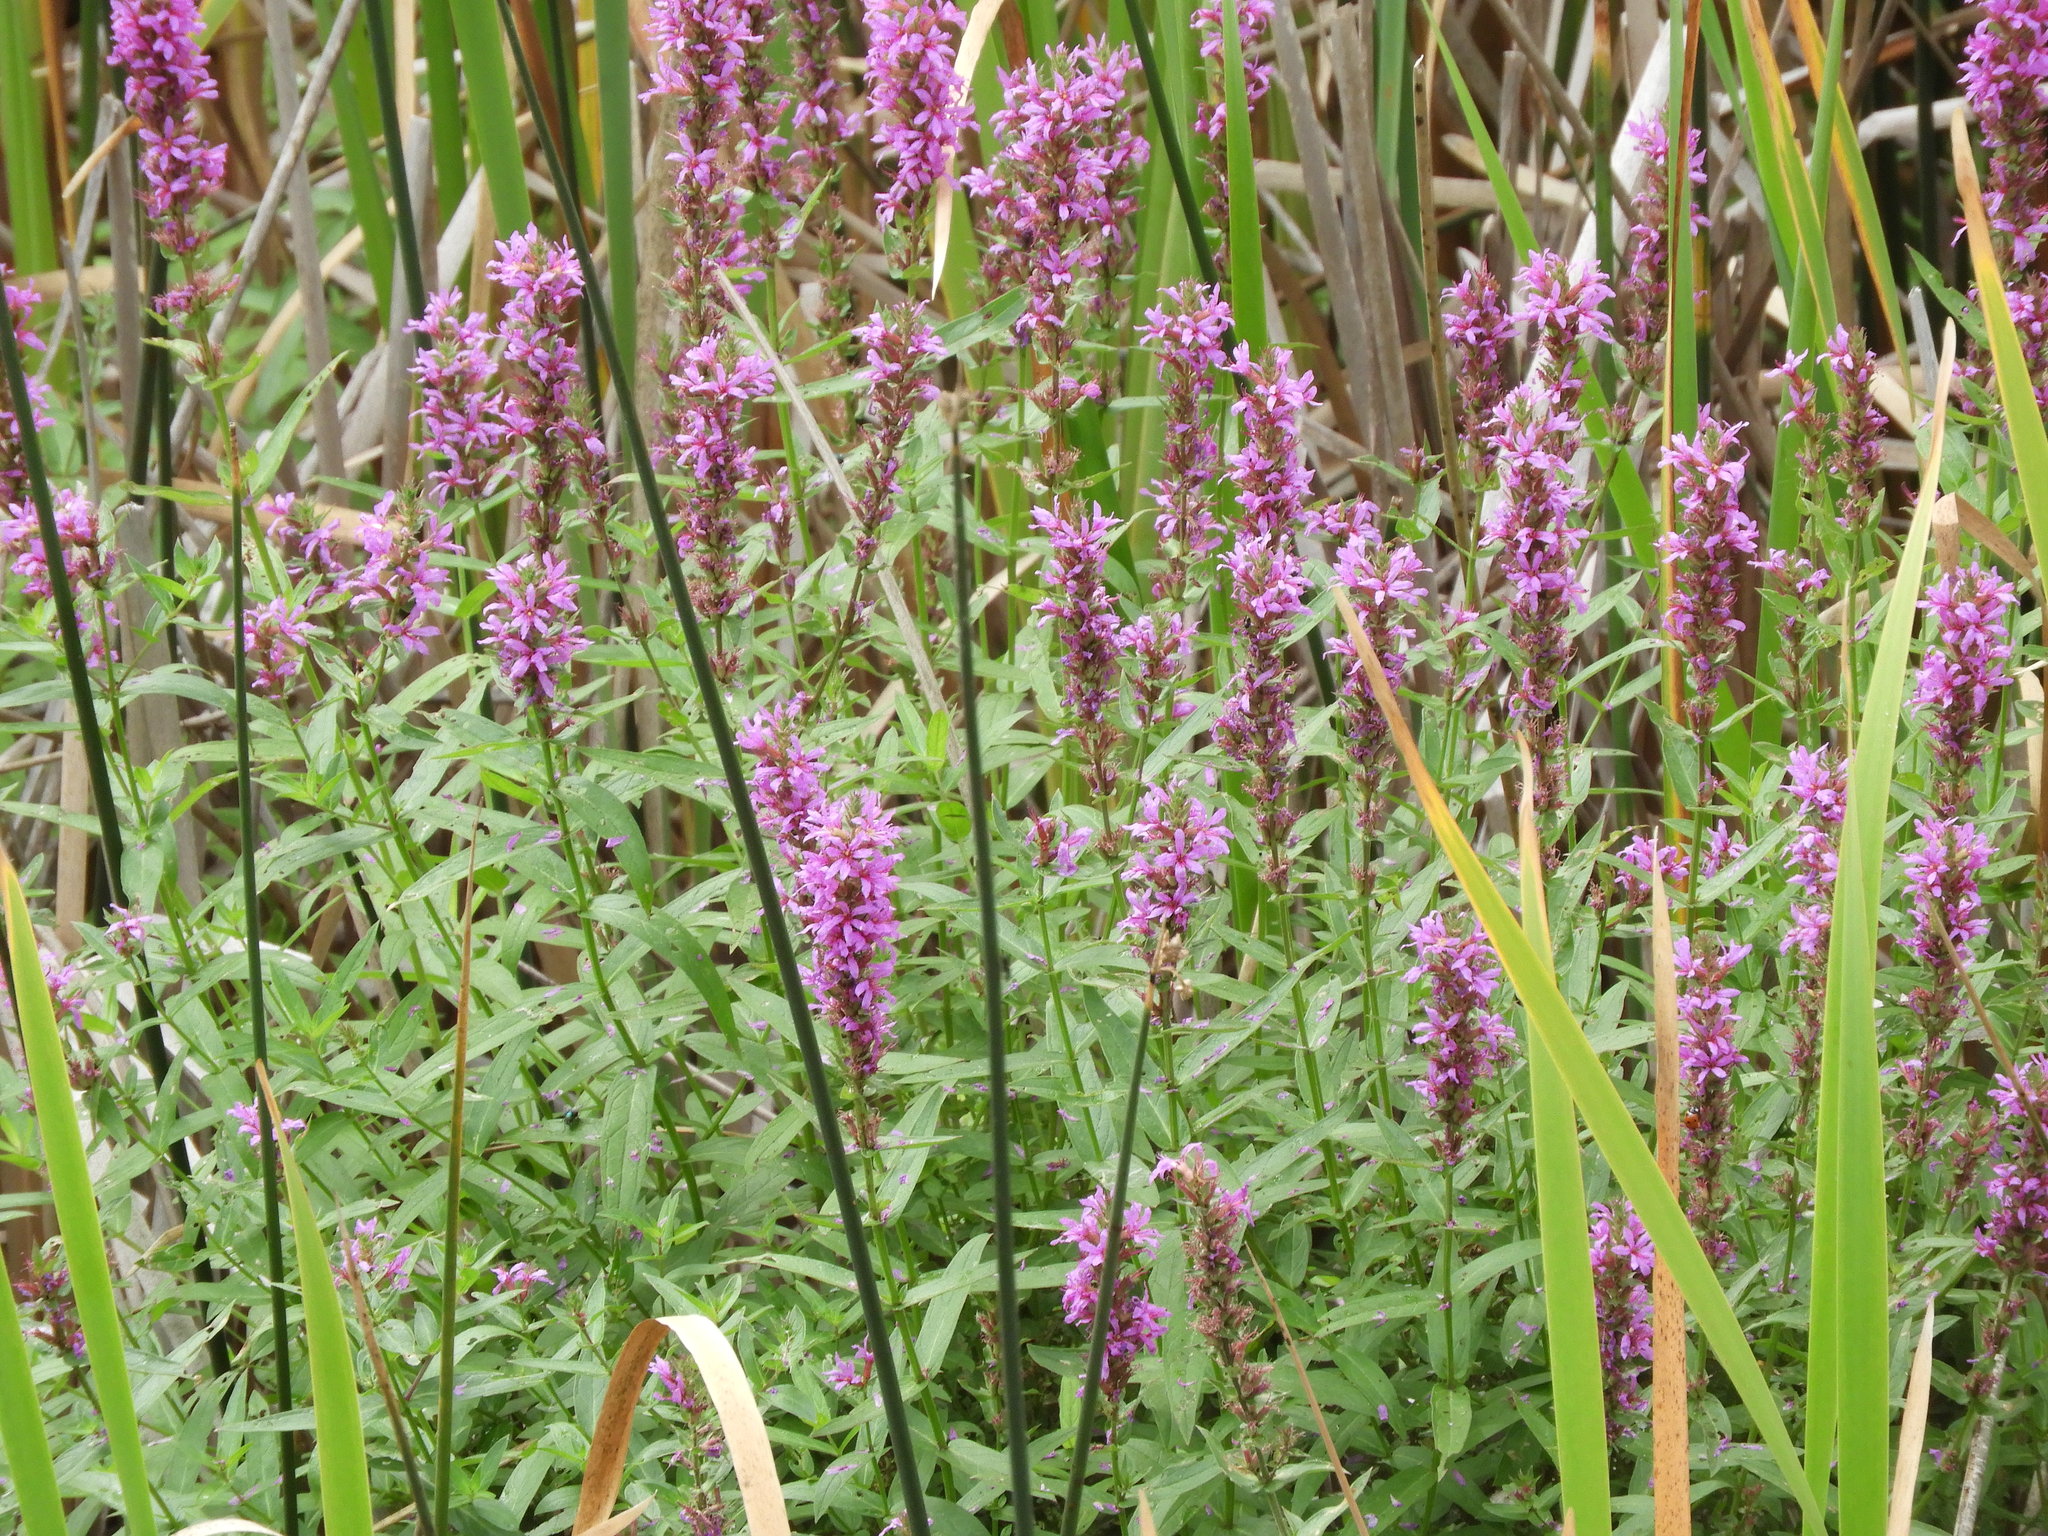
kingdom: Plantae
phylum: Tracheophyta
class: Magnoliopsida
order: Myrtales
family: Lythraceae
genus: Lythrum
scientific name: Lythrum salicaria
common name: Purple loosestrife
